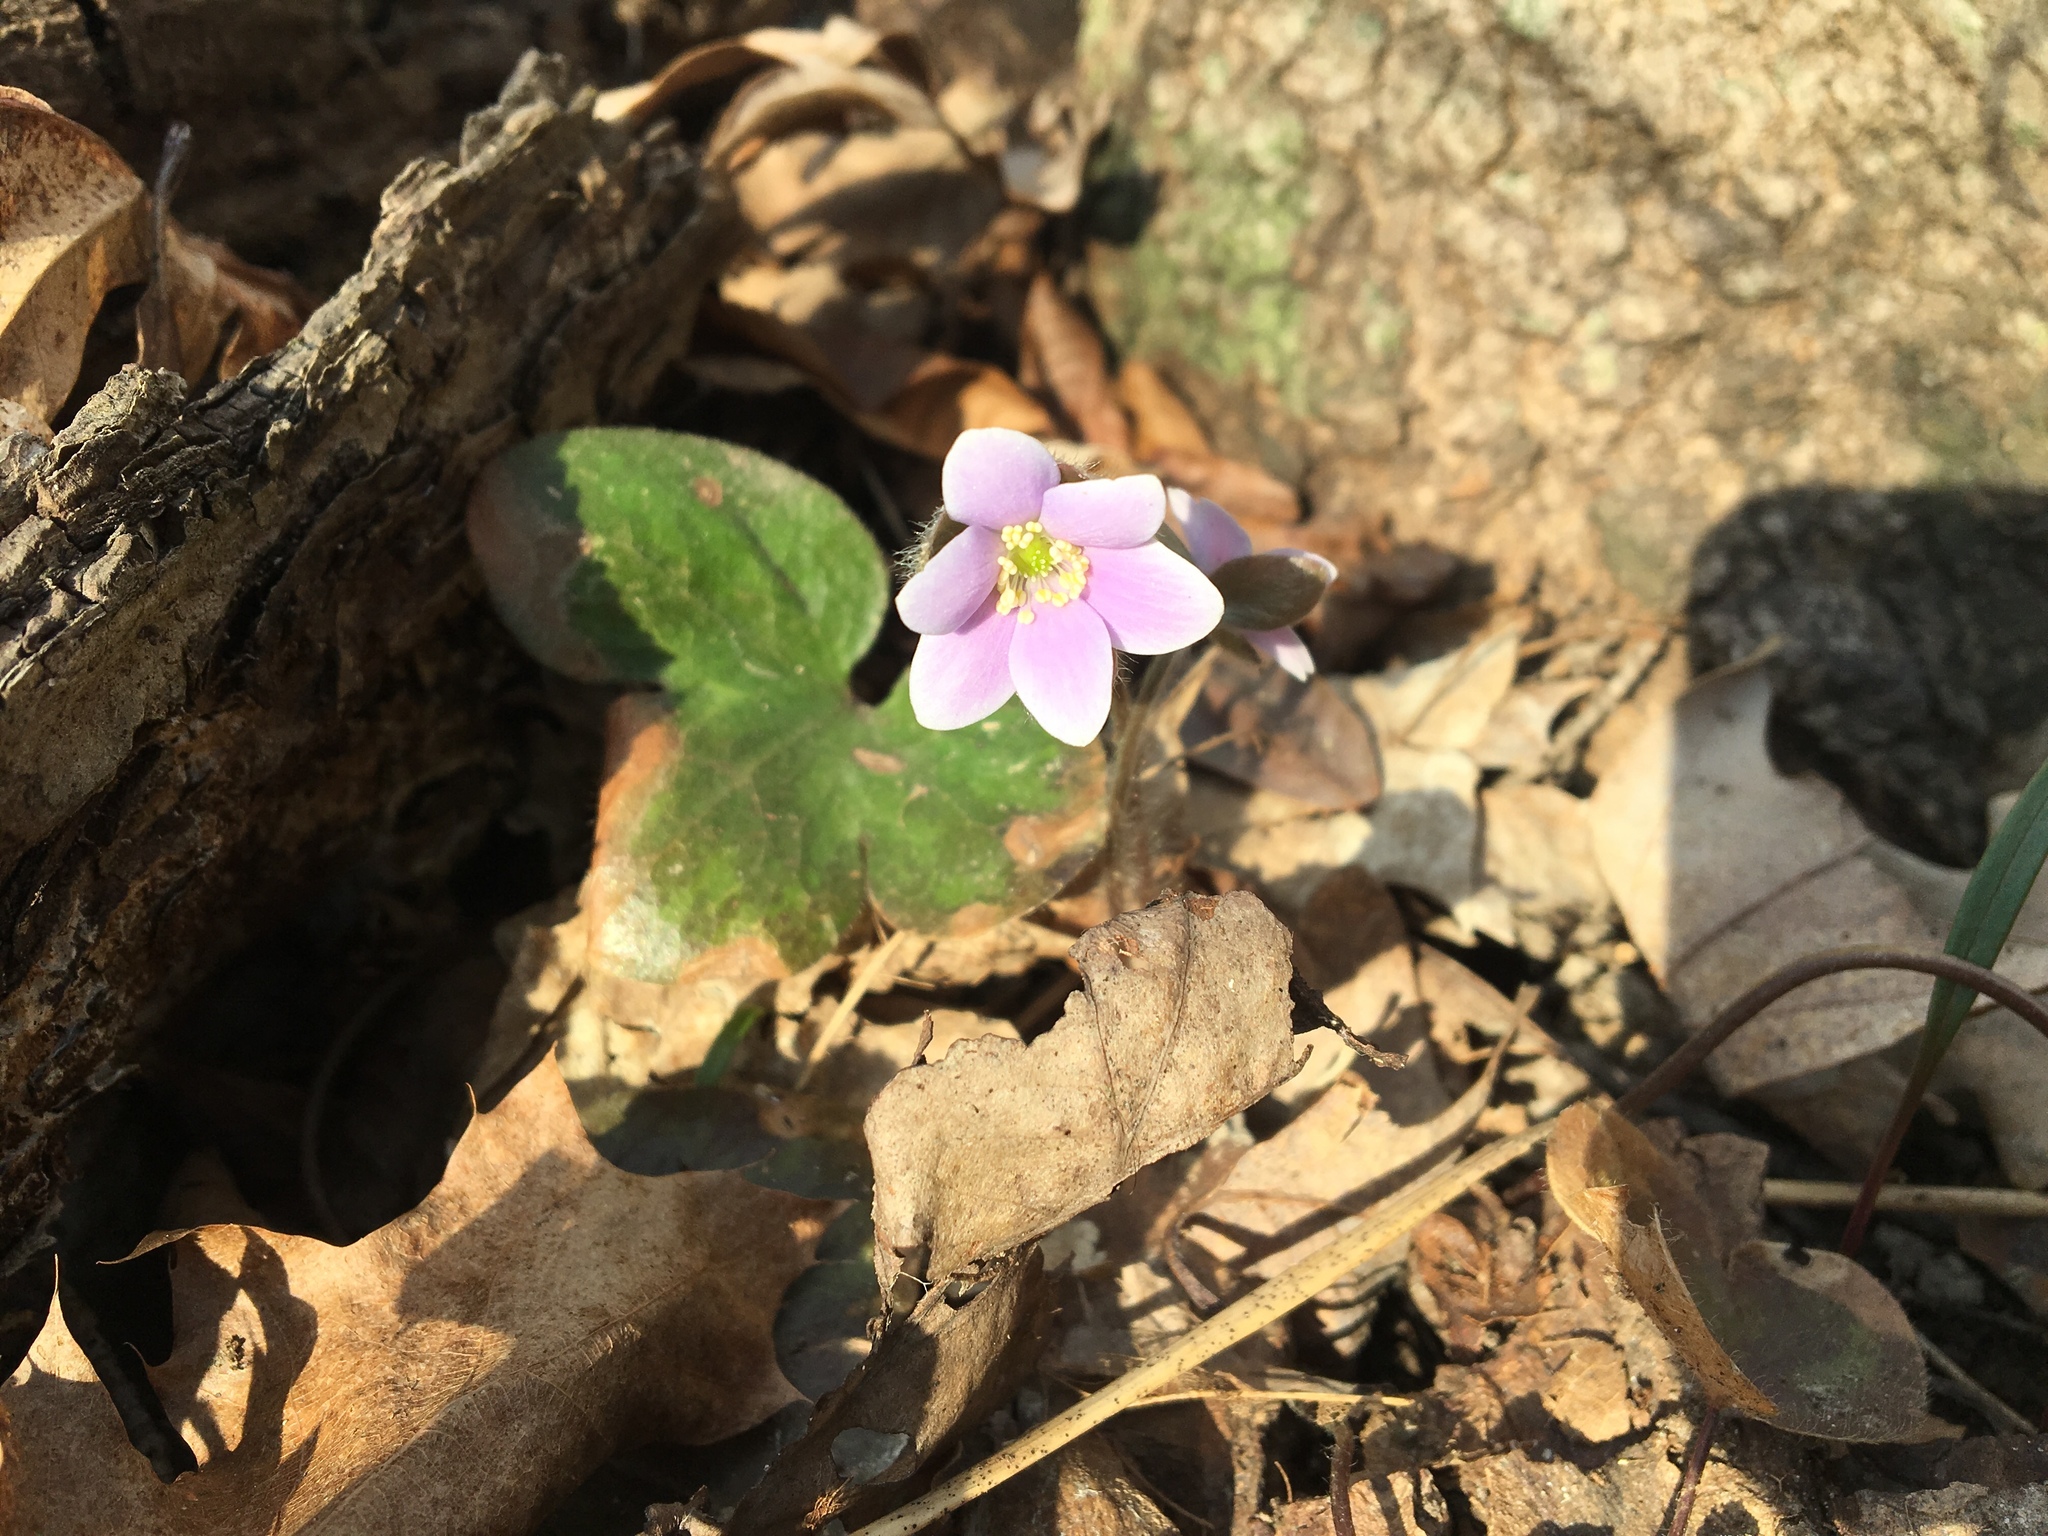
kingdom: Plantae
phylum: Tracheophyta
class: Magnoliopsida
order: Ranunculales
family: Ranunculaceae
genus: Hepatica
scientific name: Hepatica americana
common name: American hepatica
